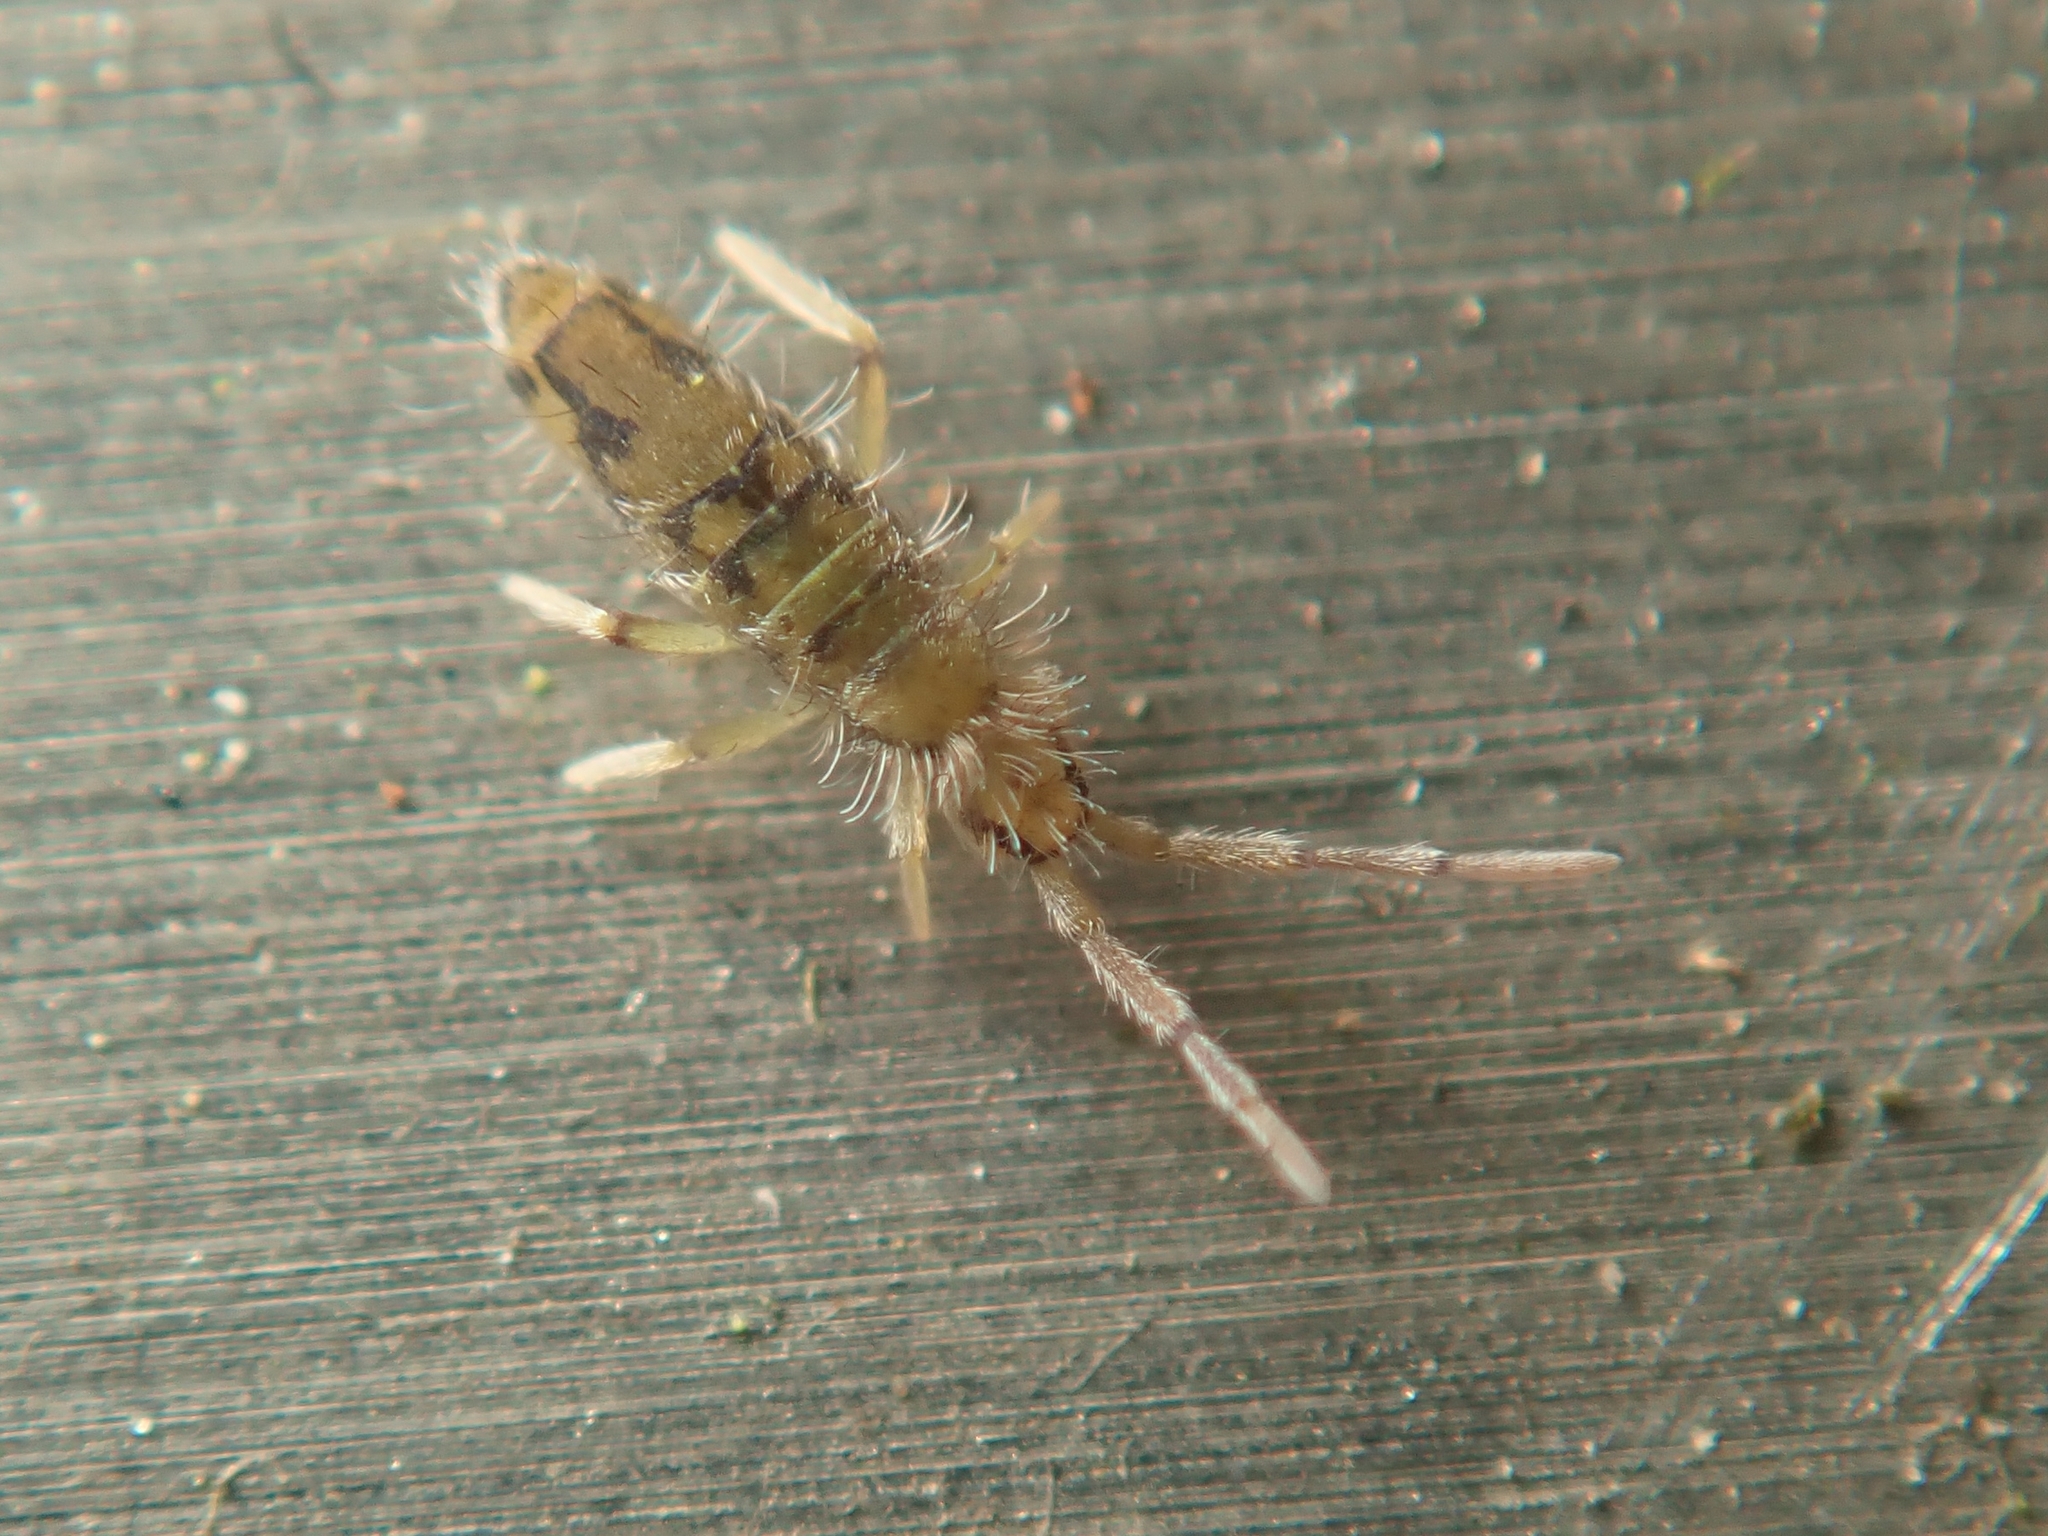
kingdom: Animalia
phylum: Arthropoda
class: Collembola
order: Entomobryomorpha
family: Entomobryidae
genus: Entomobrya
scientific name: Entomobrya nivalis
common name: Cosmopolitan springtail
